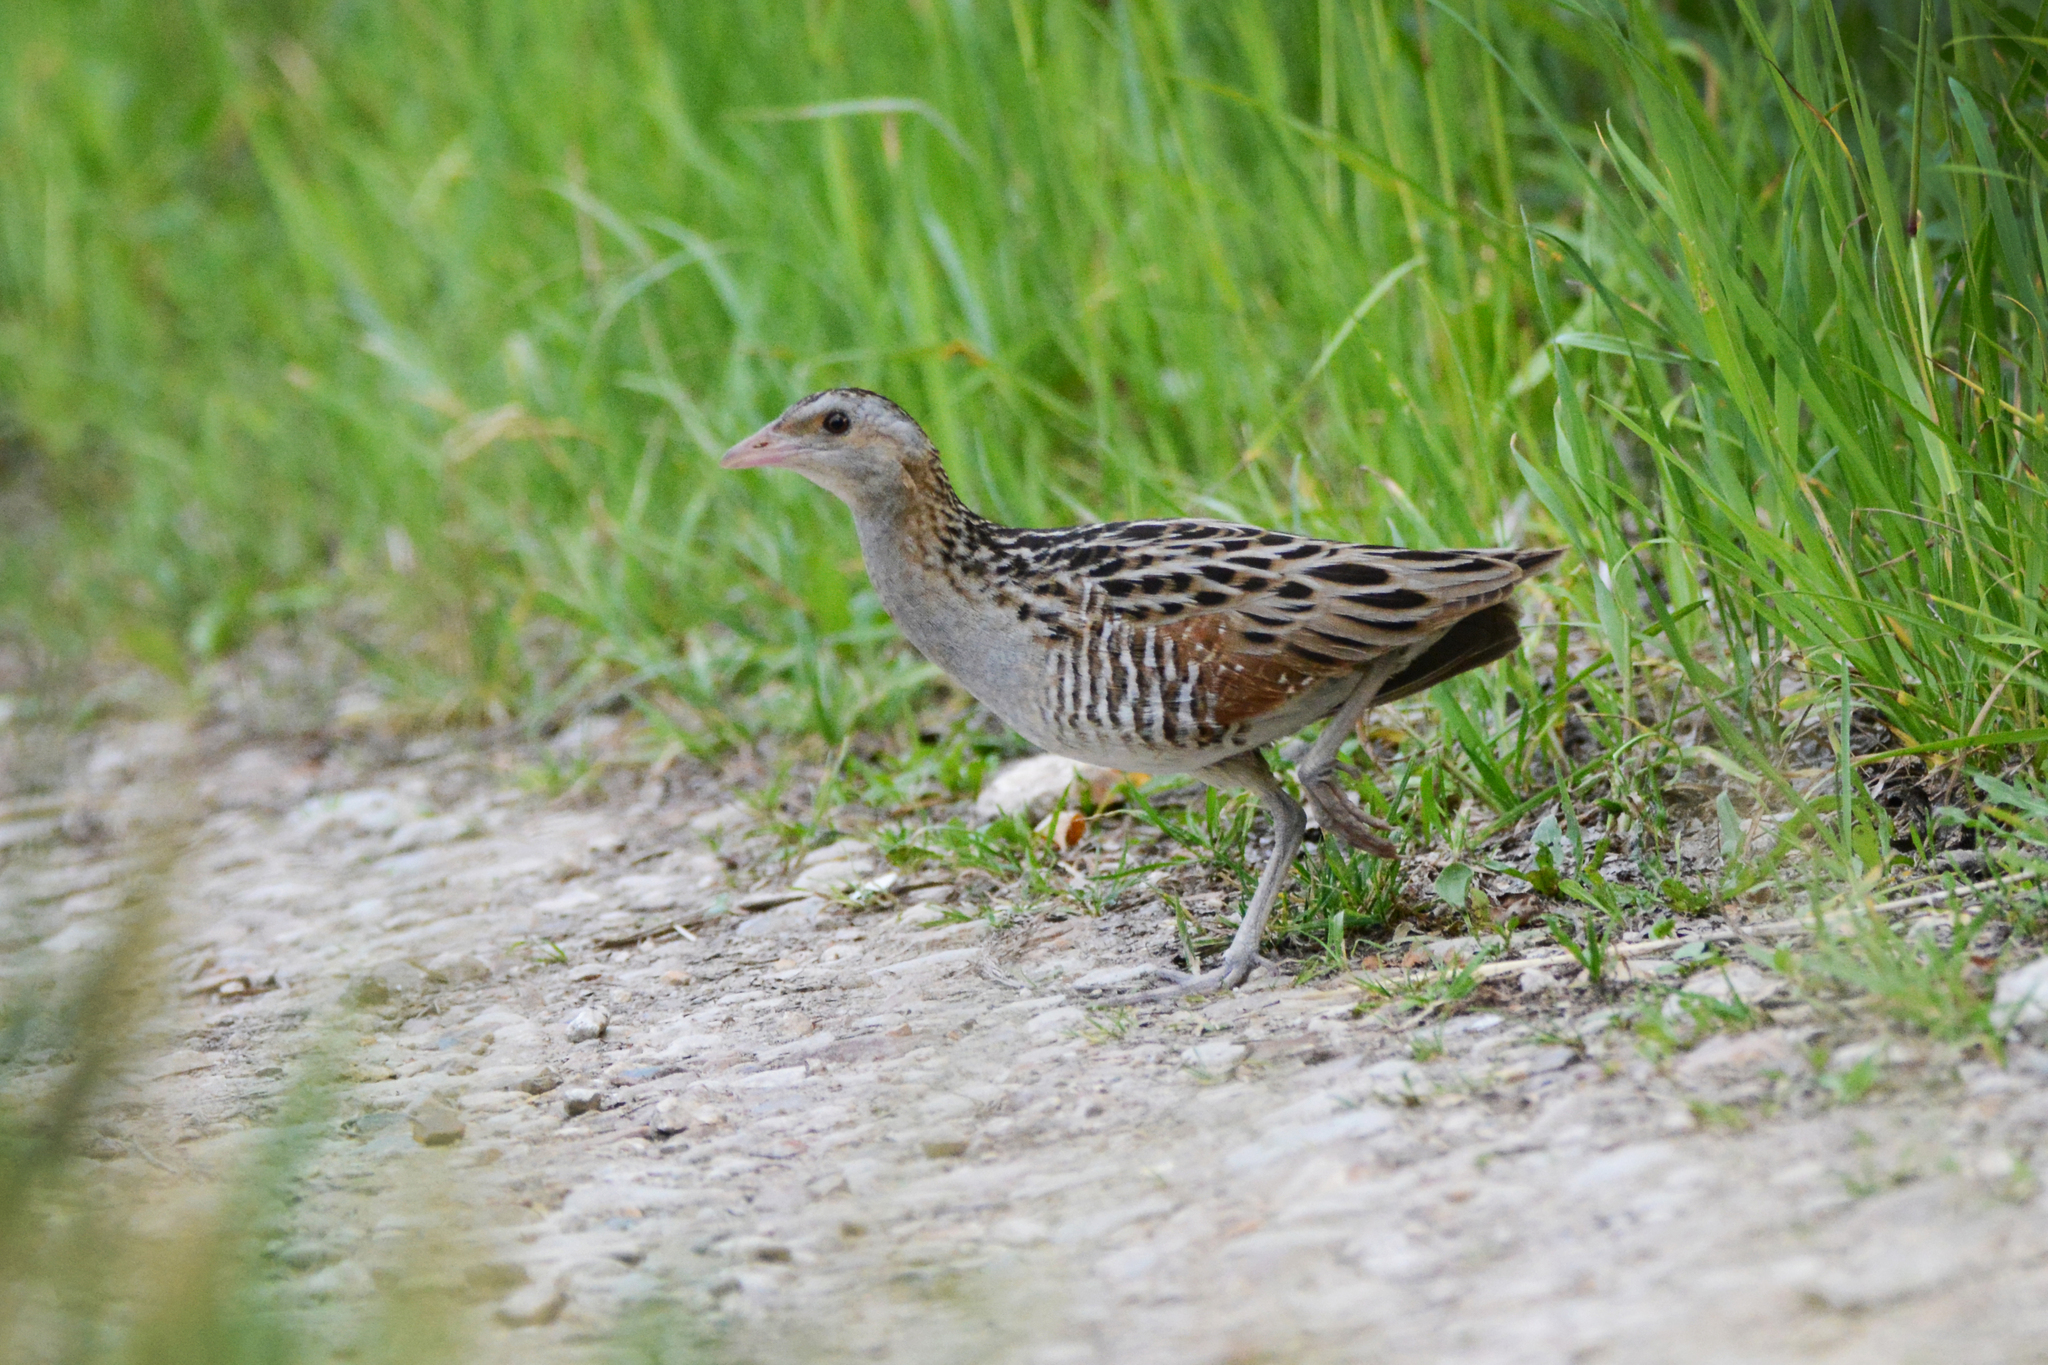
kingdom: Animalia
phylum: Chordata
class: Aves
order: Gruiformes
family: Rallidae
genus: Crex
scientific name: Crex crex
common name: Corn crake
